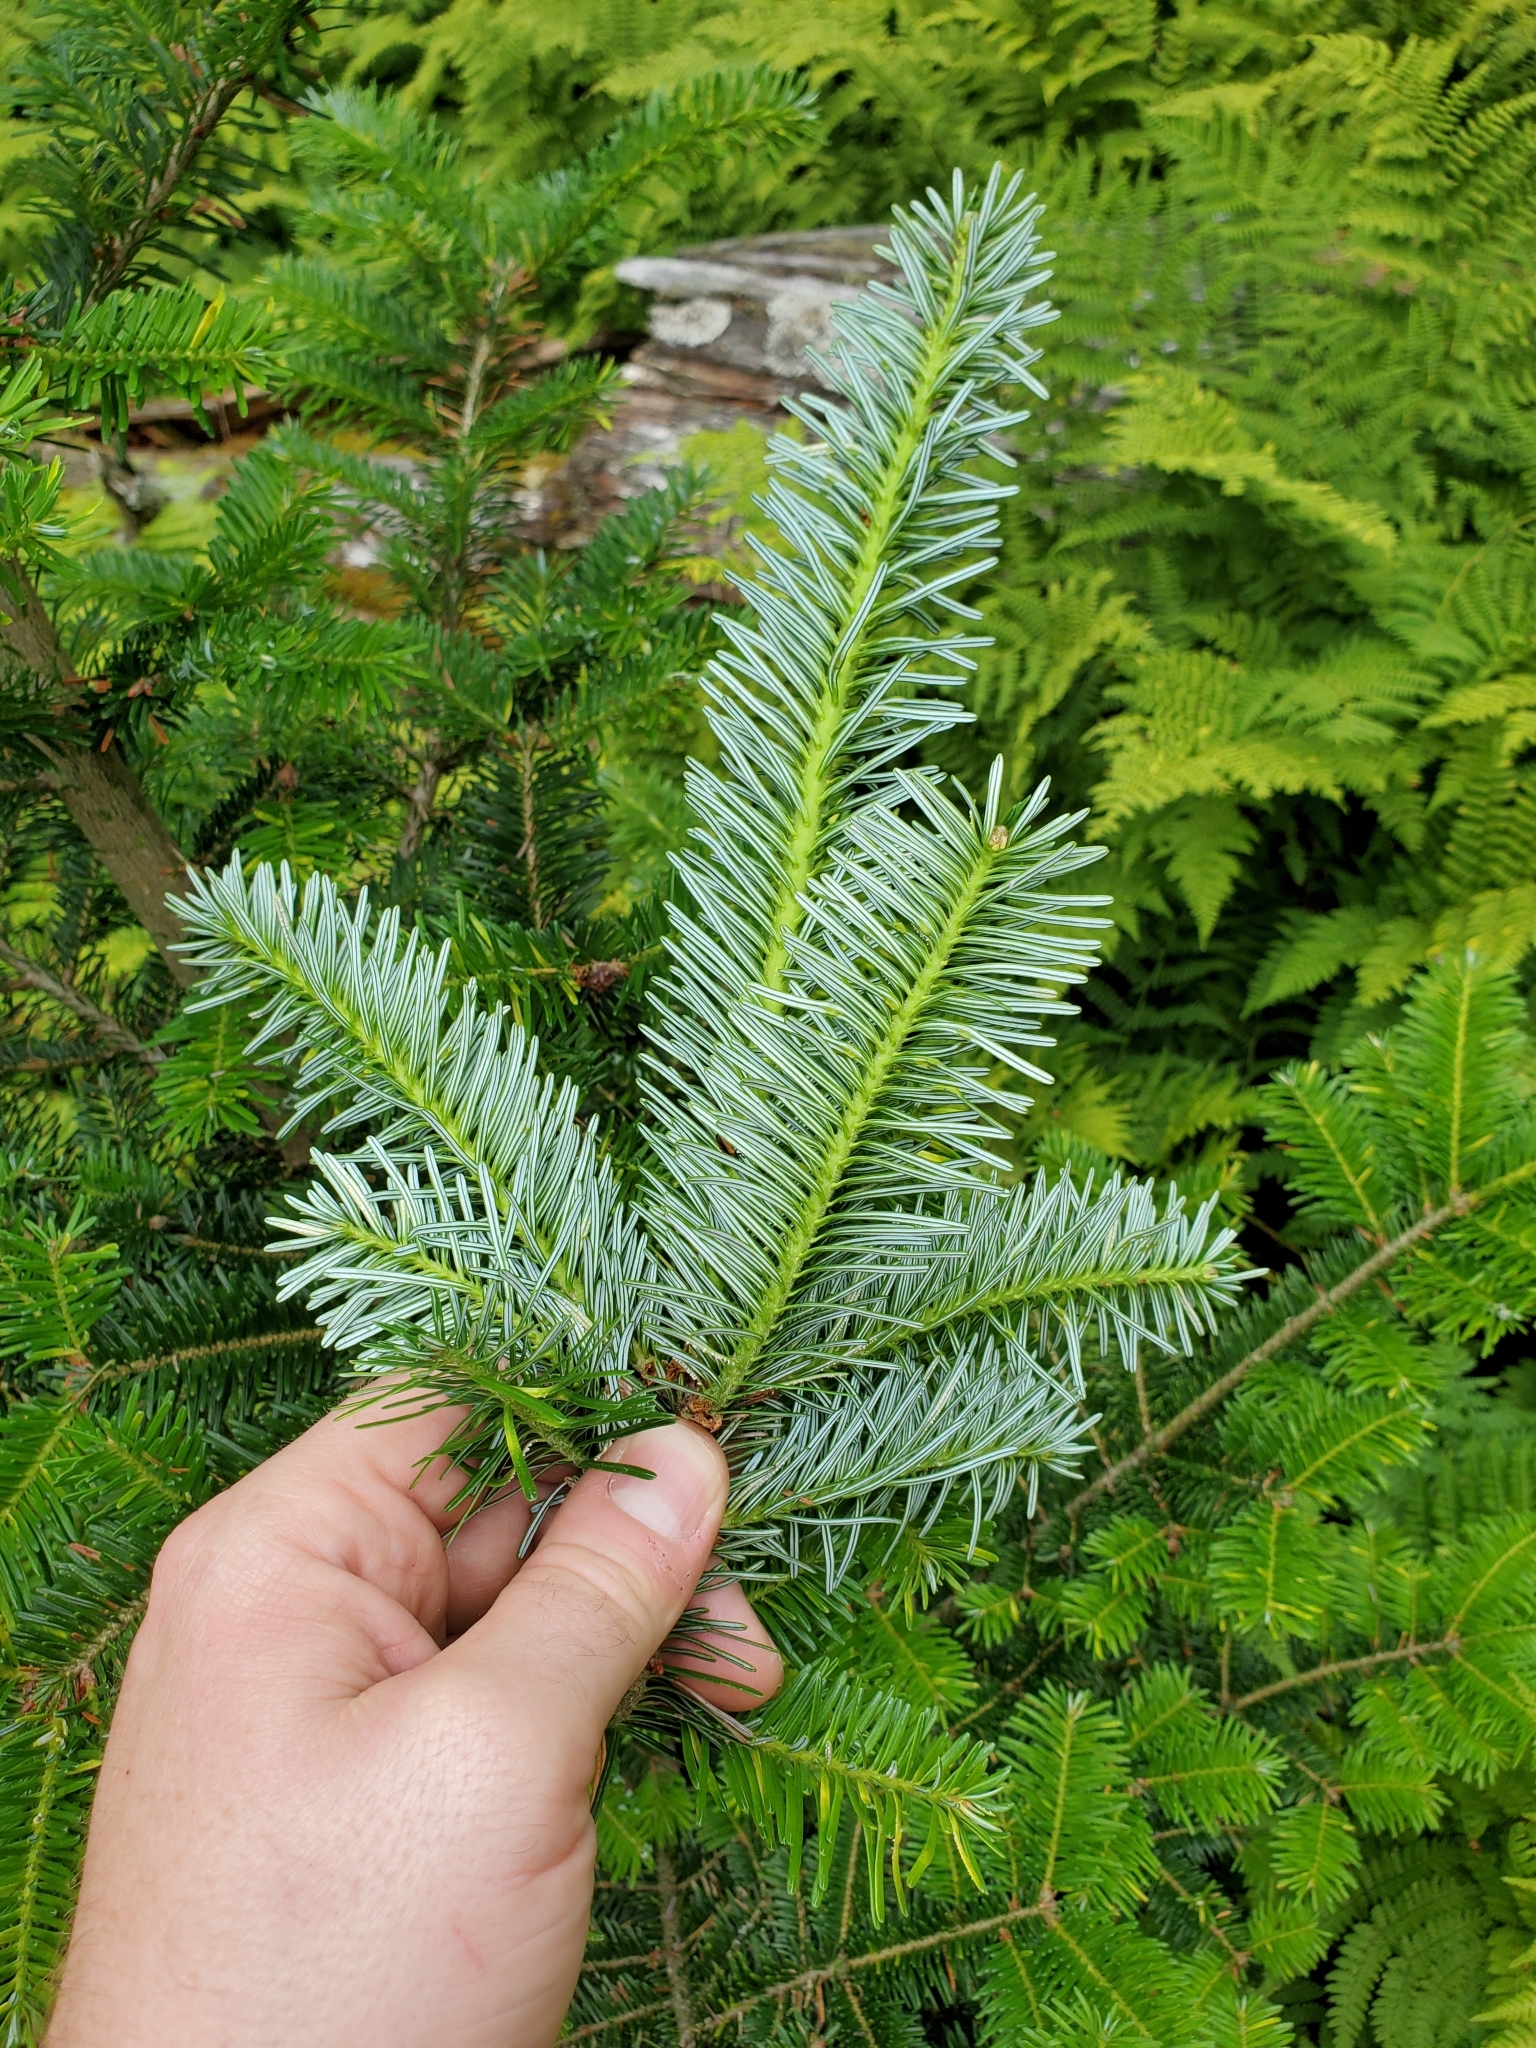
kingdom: Plantae
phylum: Tracheophyta
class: Pinopsida
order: Pinales
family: Pinaceae
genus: Abies
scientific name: Abies fraseri
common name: Fraser fir
